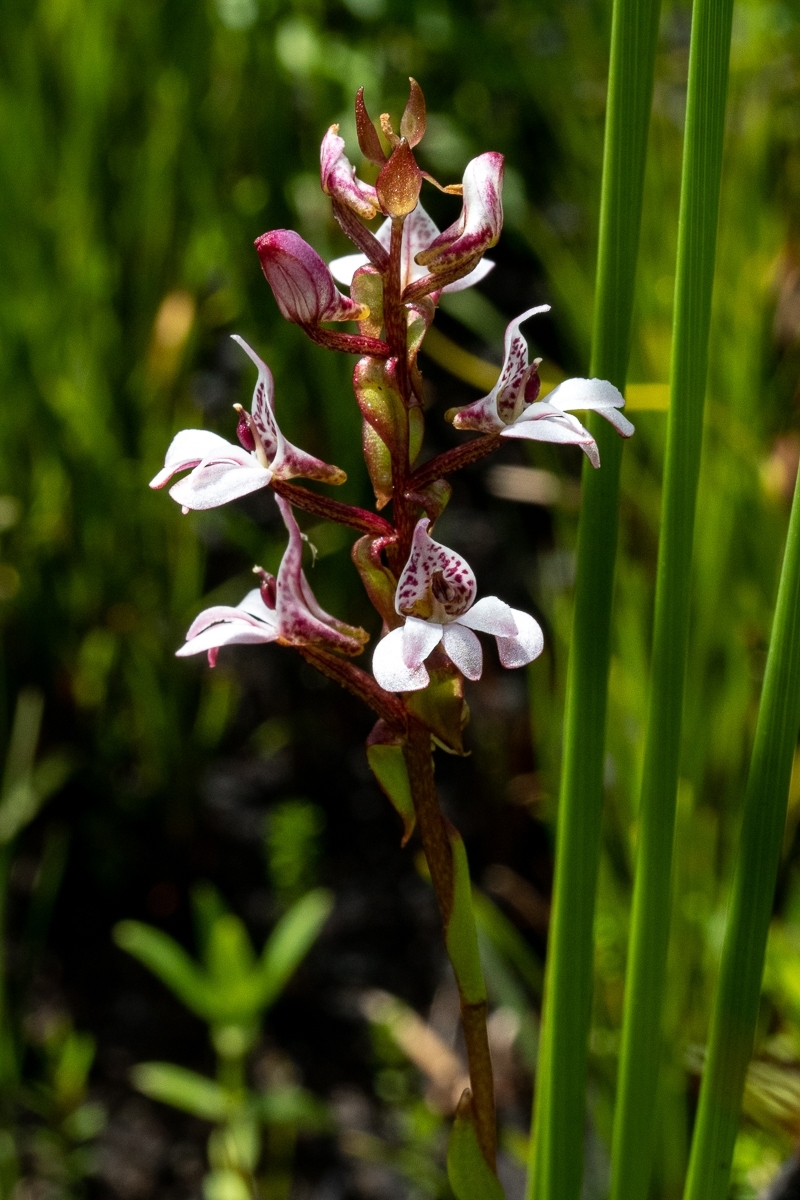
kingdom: Plantae
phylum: Tracheophyta
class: Liliopsida
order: Asparagales
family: Orchidaceae
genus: Satyrium
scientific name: Satyrium rhynchanthum
